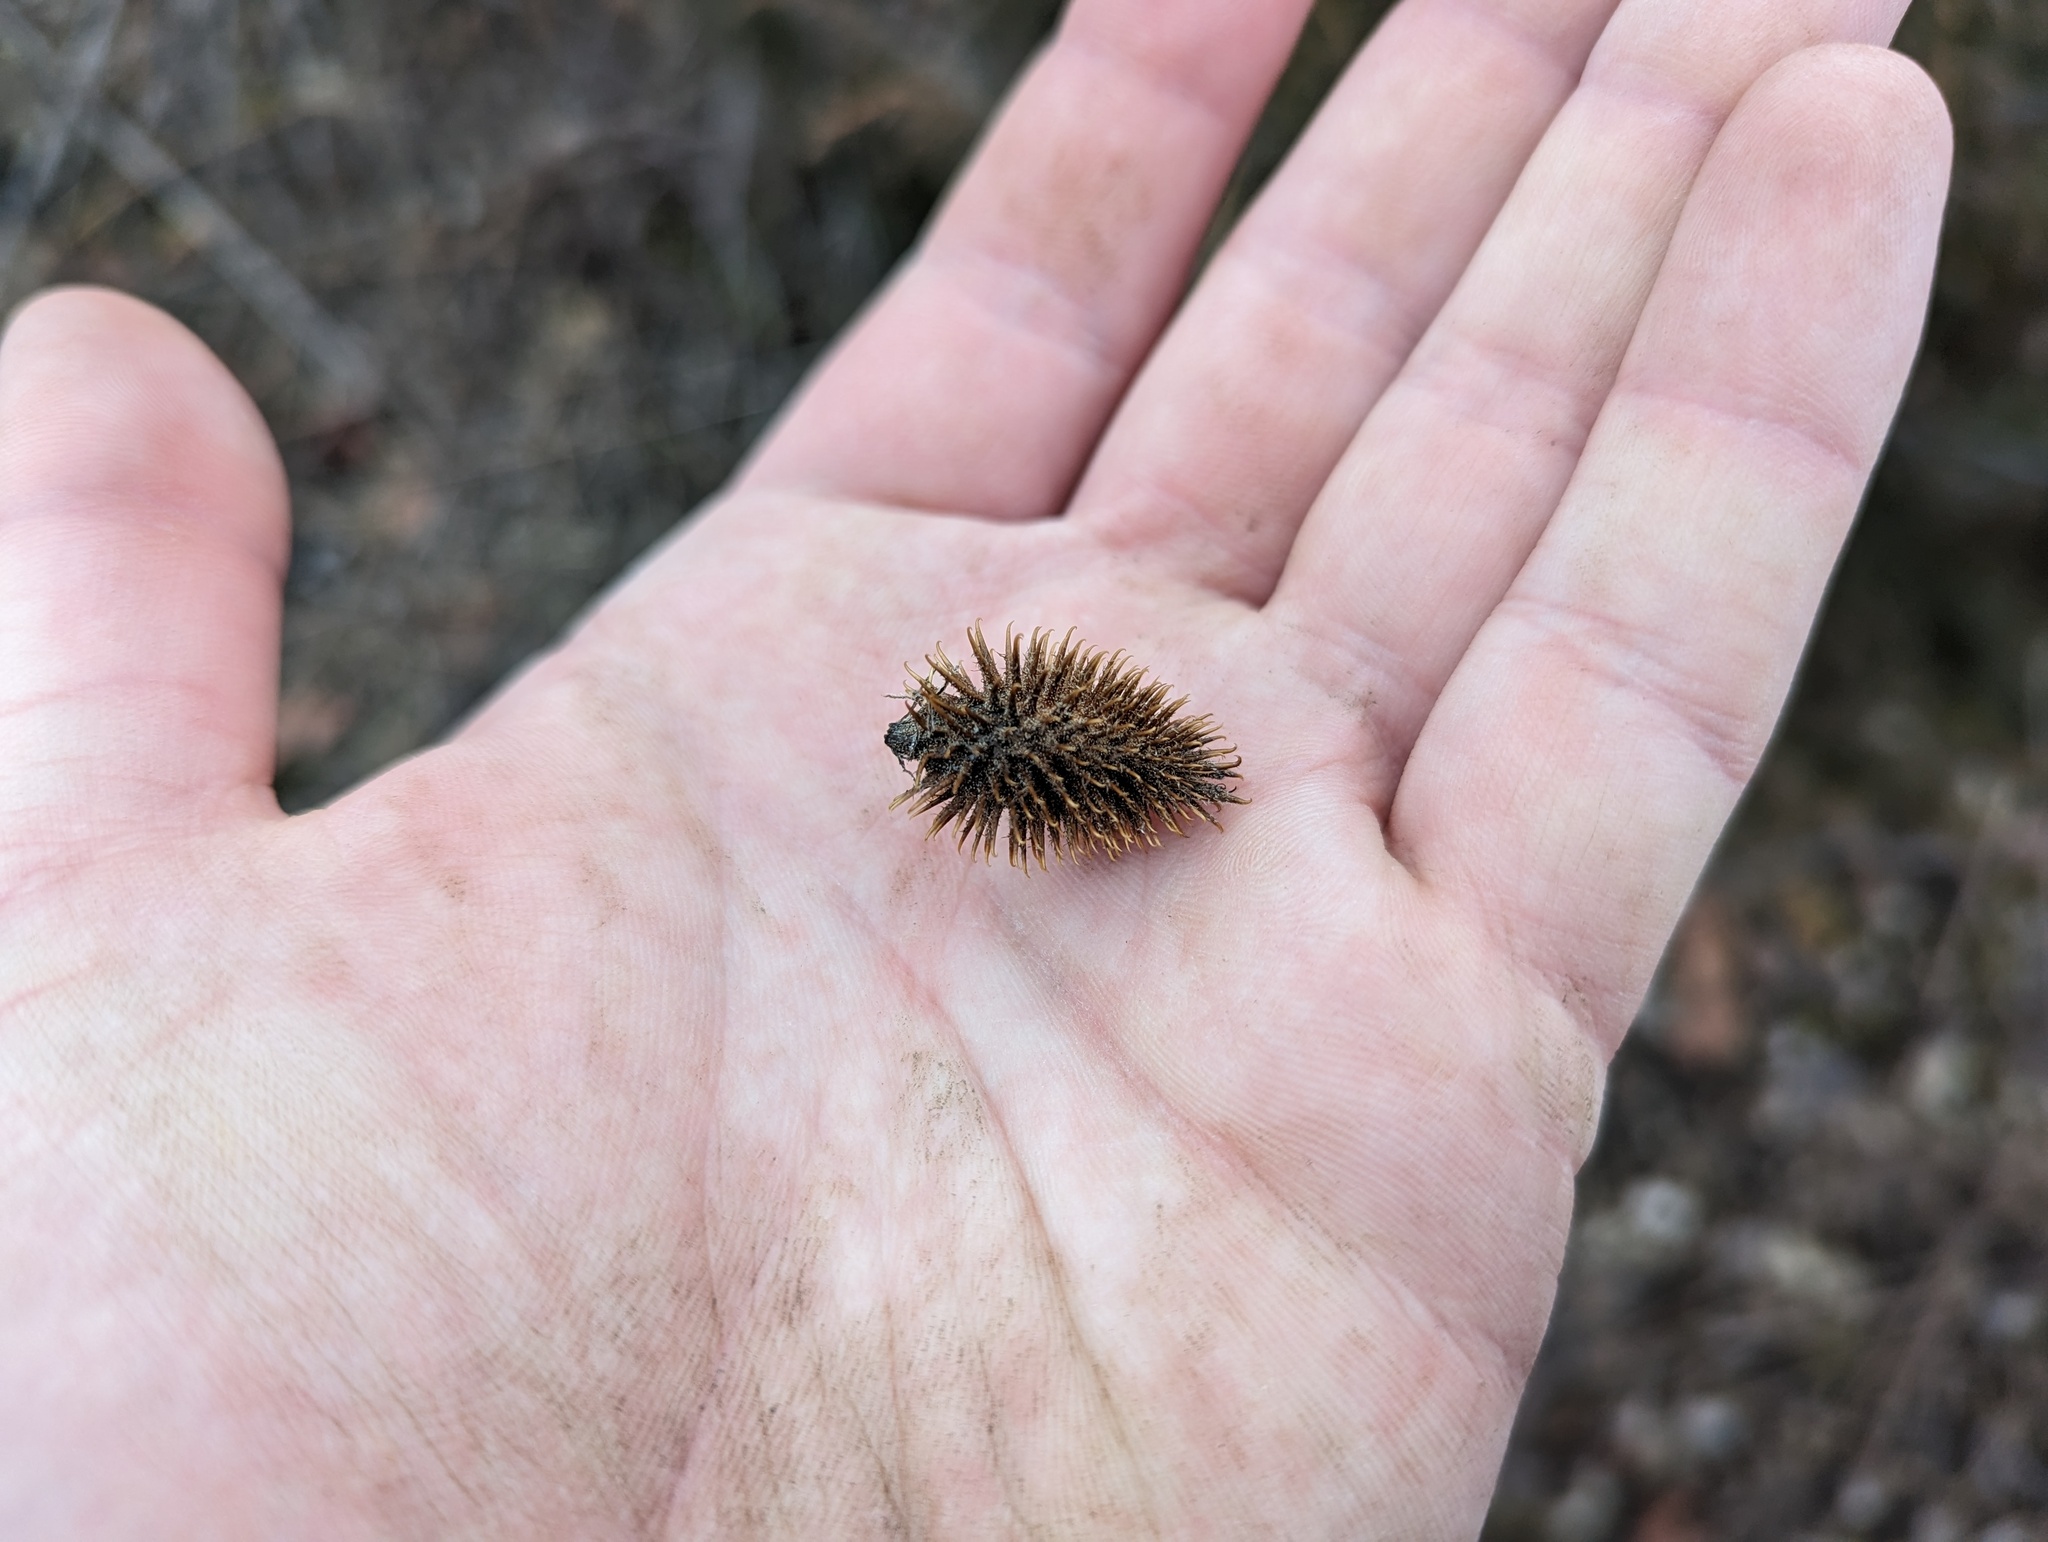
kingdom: Plantae
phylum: Tracheophyta
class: Magnoliopsida
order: Asterales
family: Asteraceae
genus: Xanthium
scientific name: Xanthium orientale
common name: Californian burr
